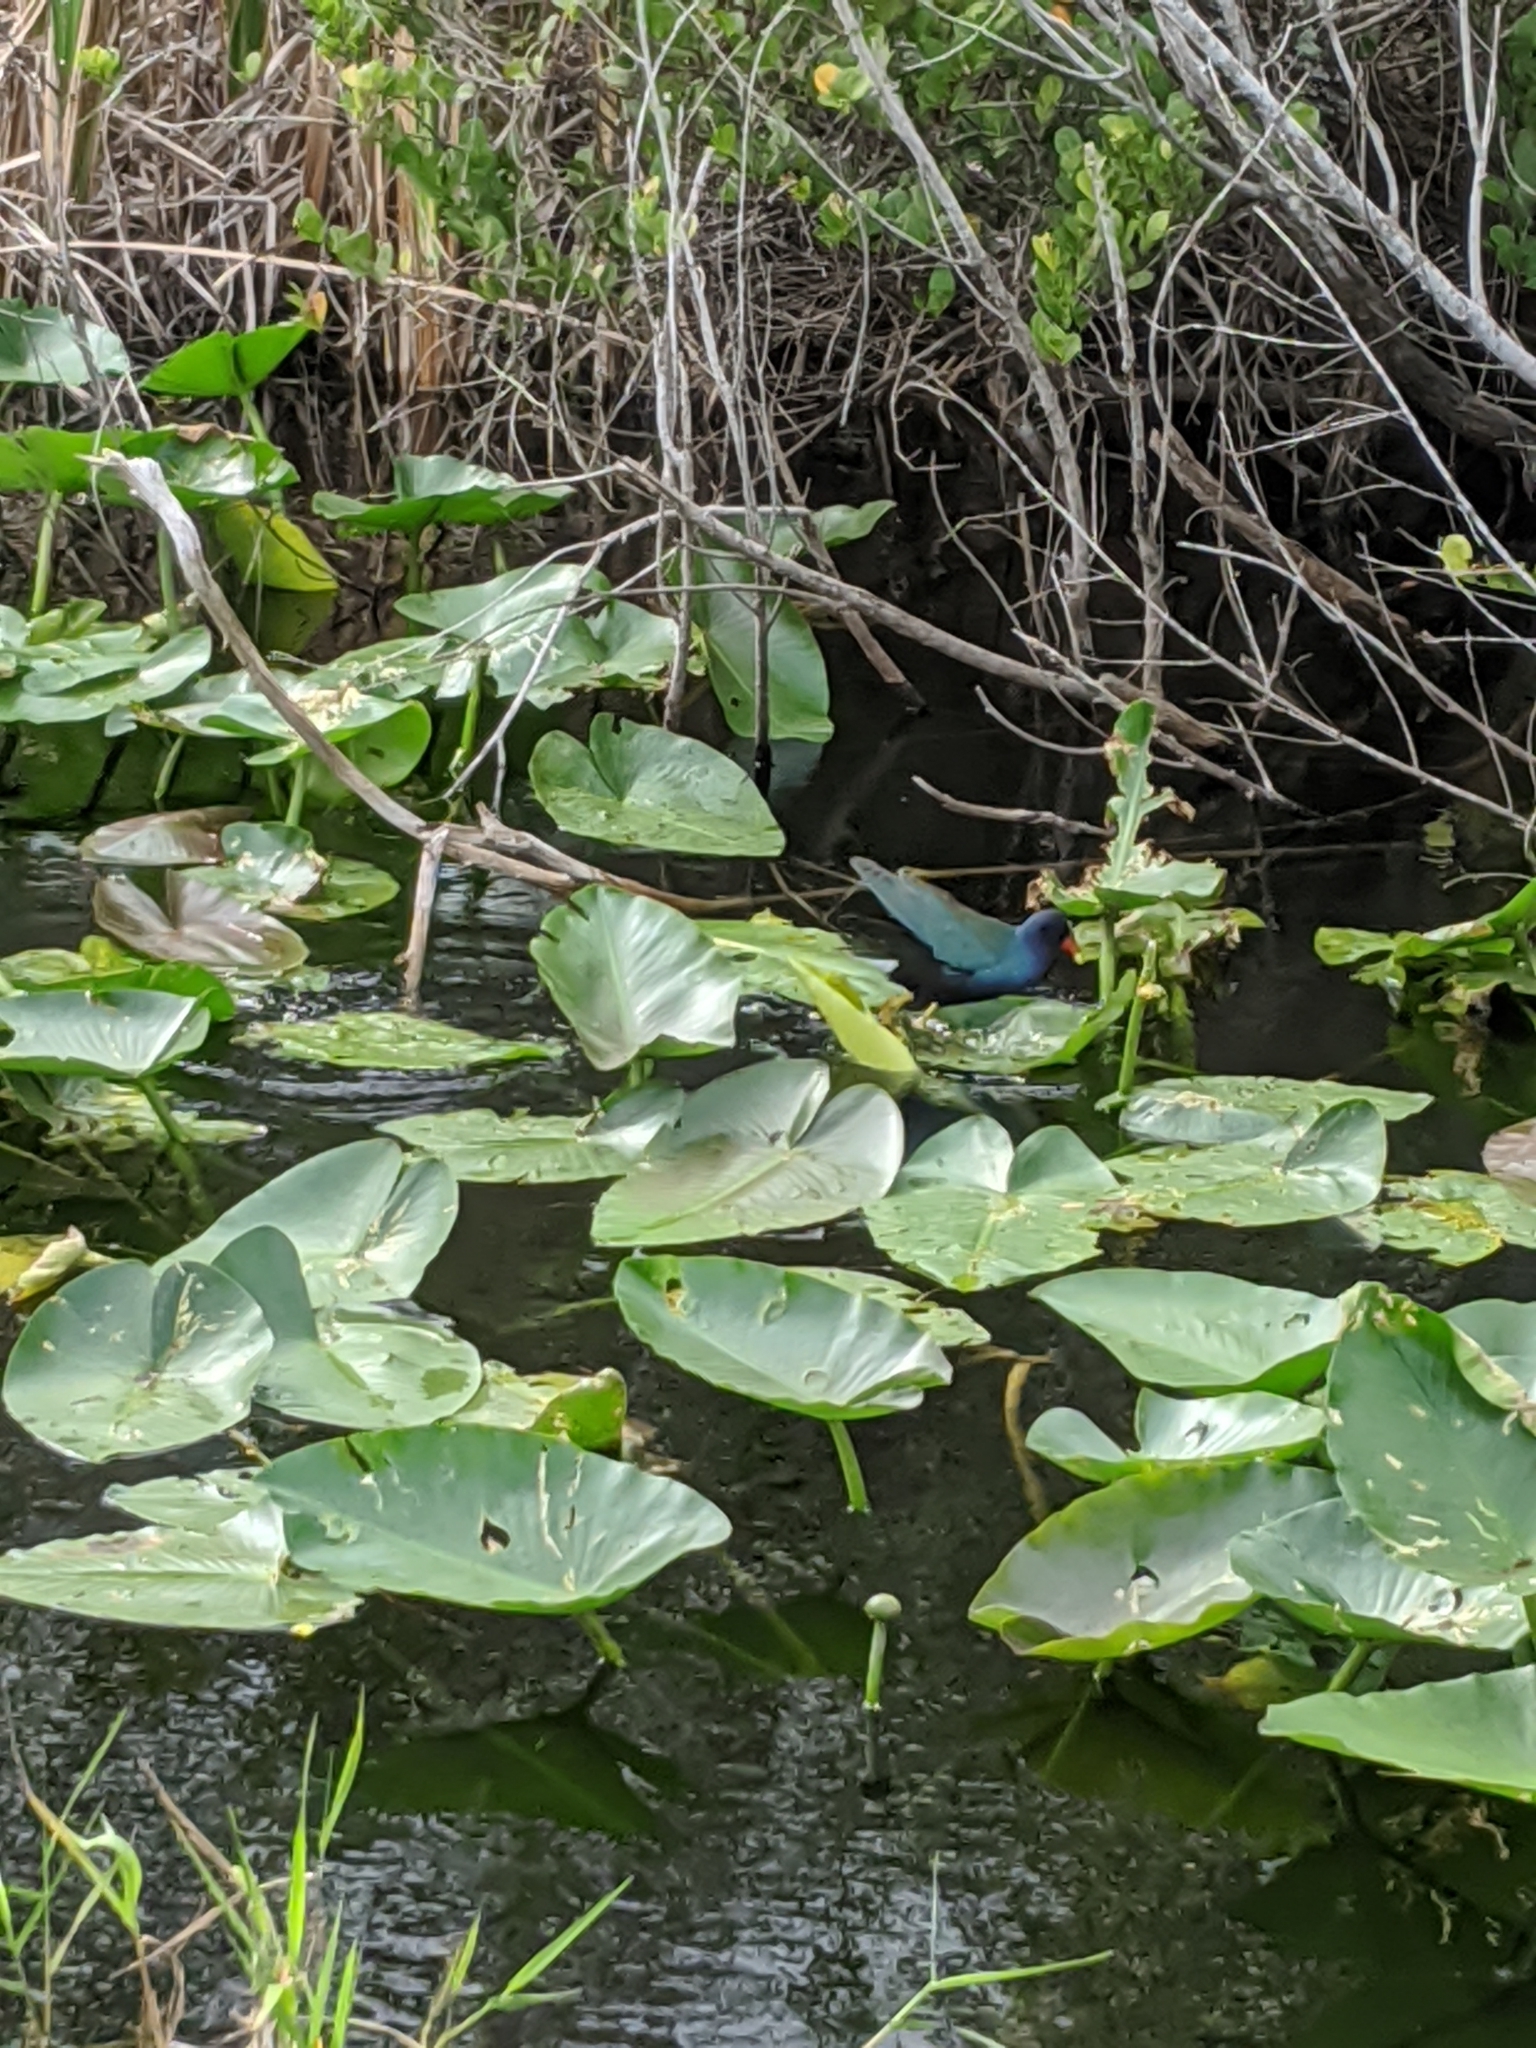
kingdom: Animalia
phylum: Chordata
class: Aves
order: Gruiformes
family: Rallidae
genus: Porphyrio
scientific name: Porphyrio martinica
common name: Purple gallinule
